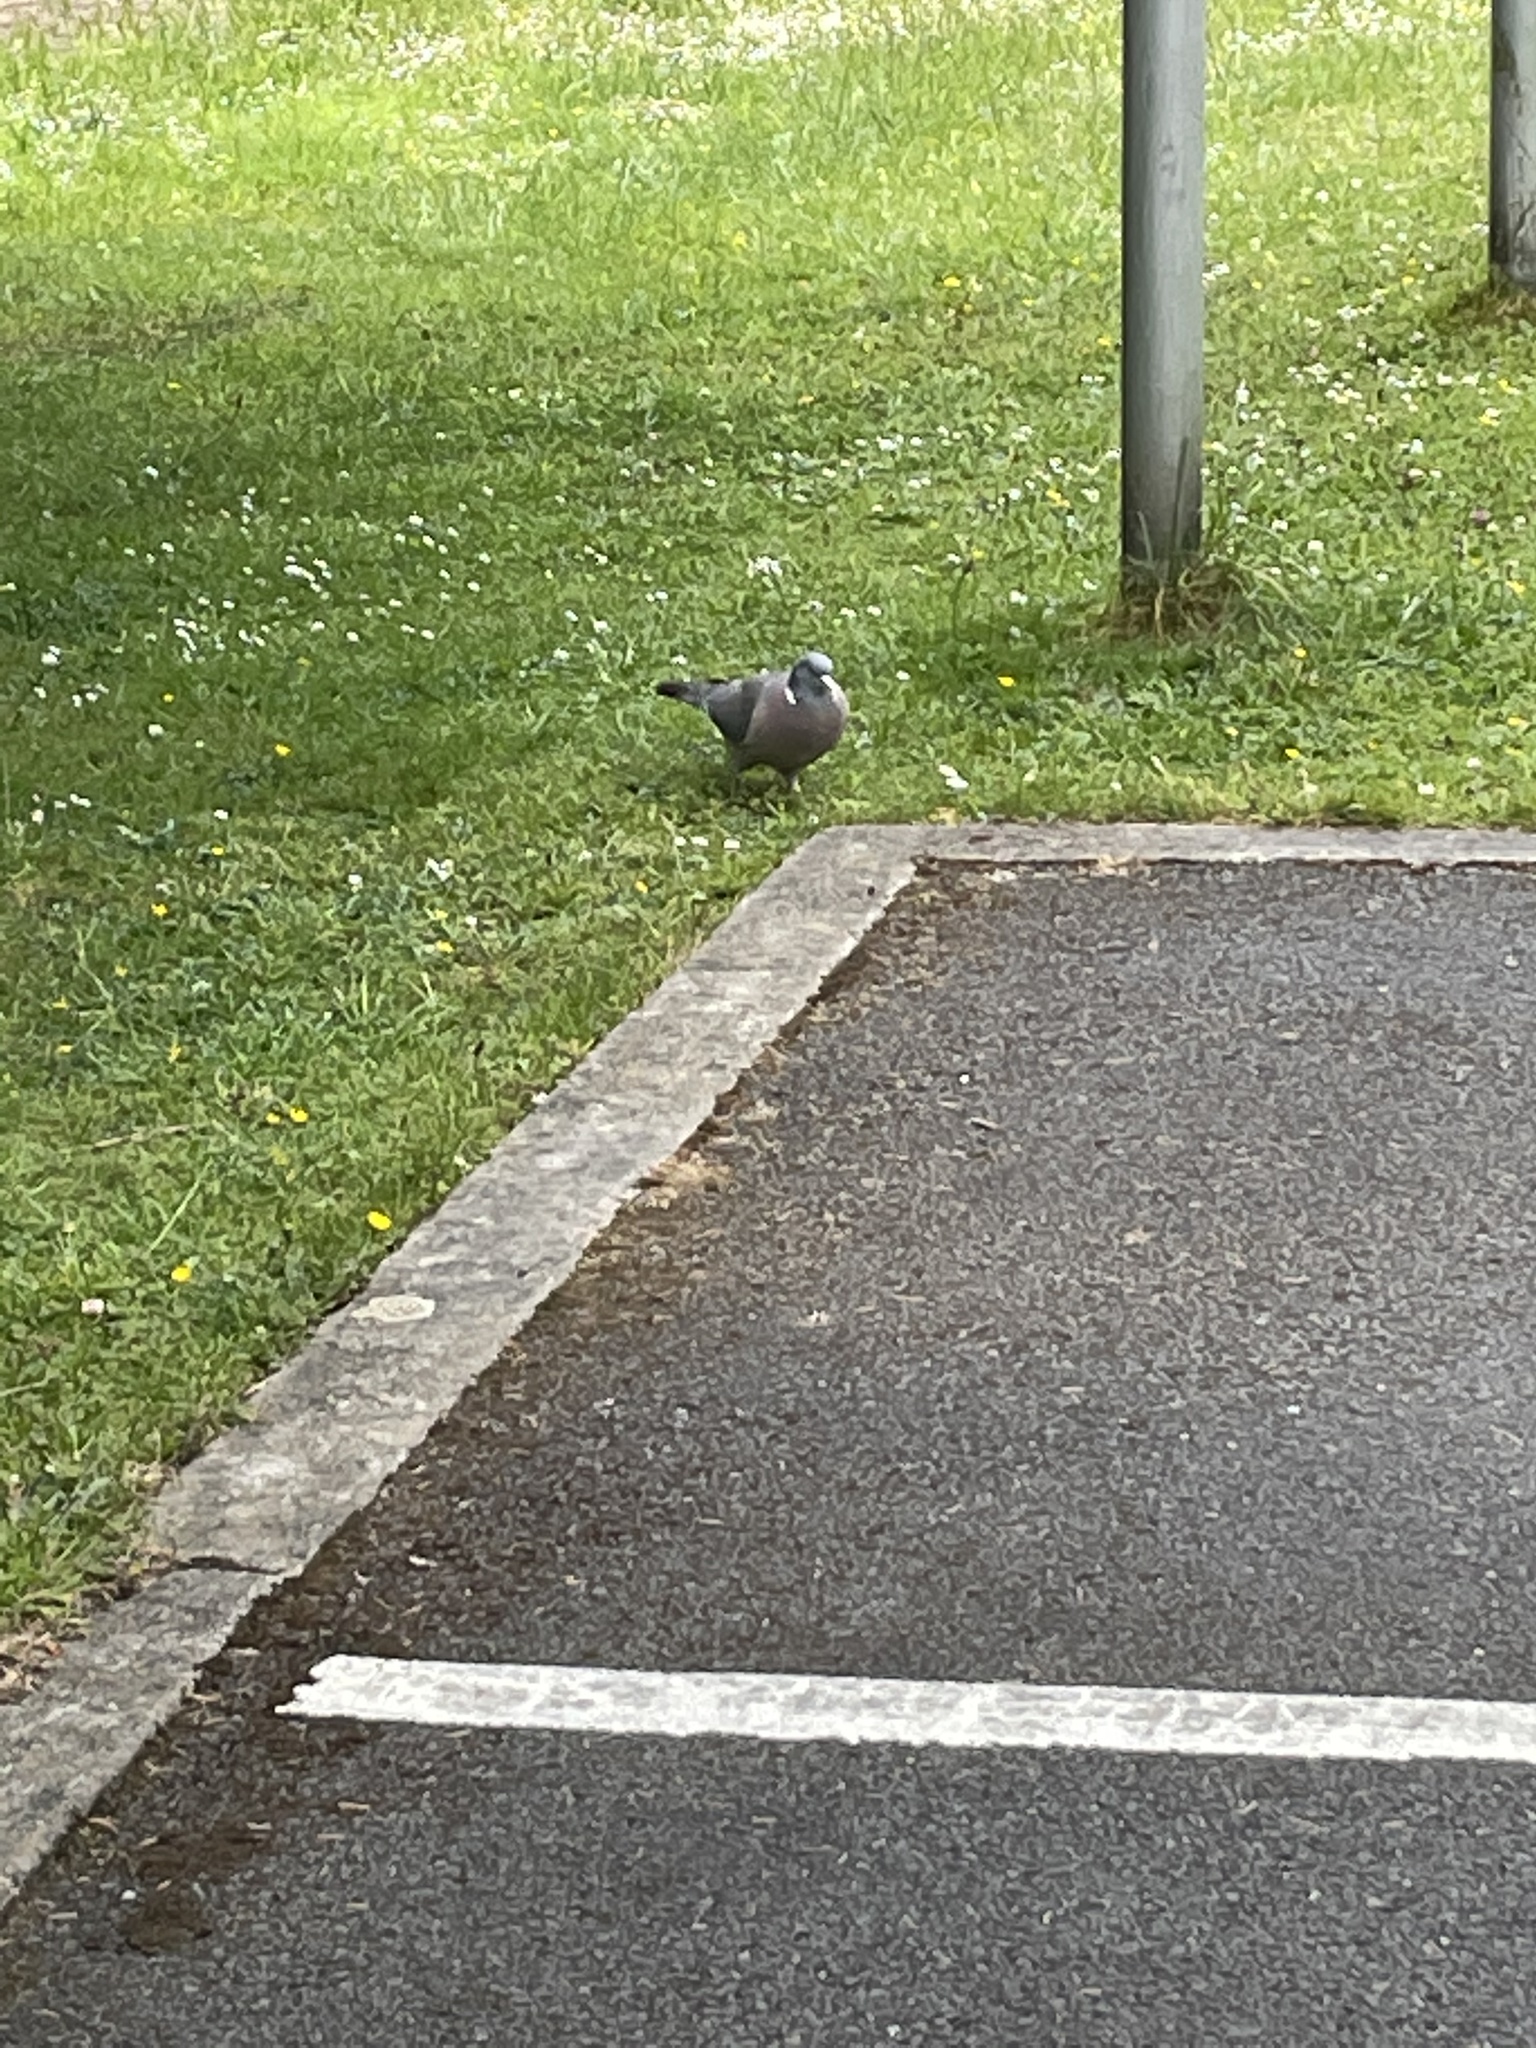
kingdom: Animalia
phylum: Chordata
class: Aves
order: Columbiformes
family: Columbidae
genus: Columba
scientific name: Columba palumbus
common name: Common wood pigeon
